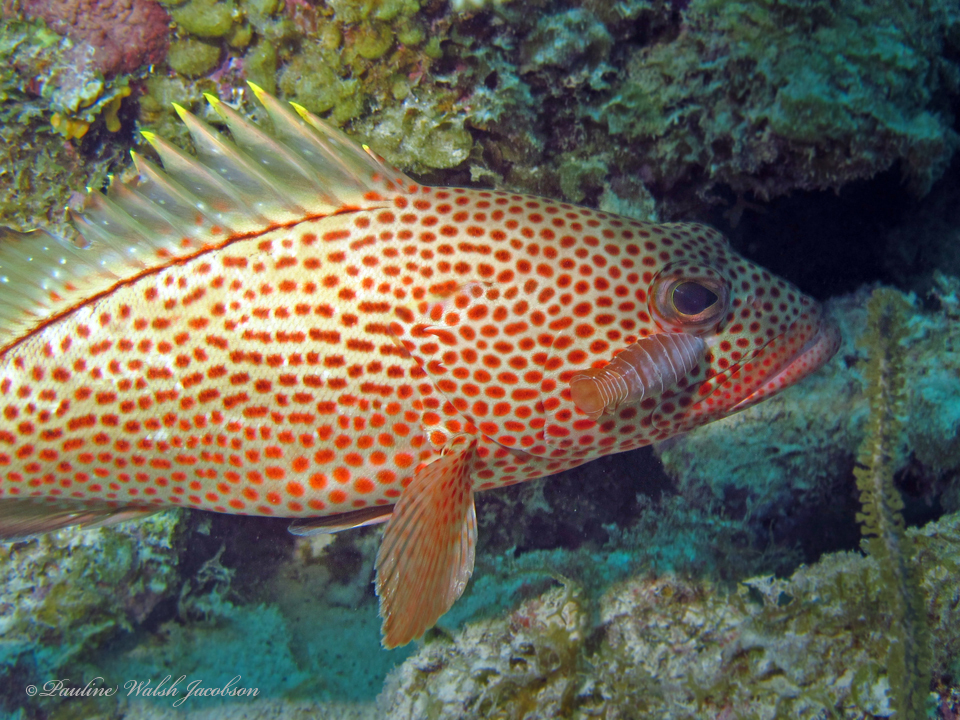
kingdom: Animalia
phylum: Chordata
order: Perciformes
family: Serranidae
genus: Epinephelus
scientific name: Epinephelus guttatus
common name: Red hind
